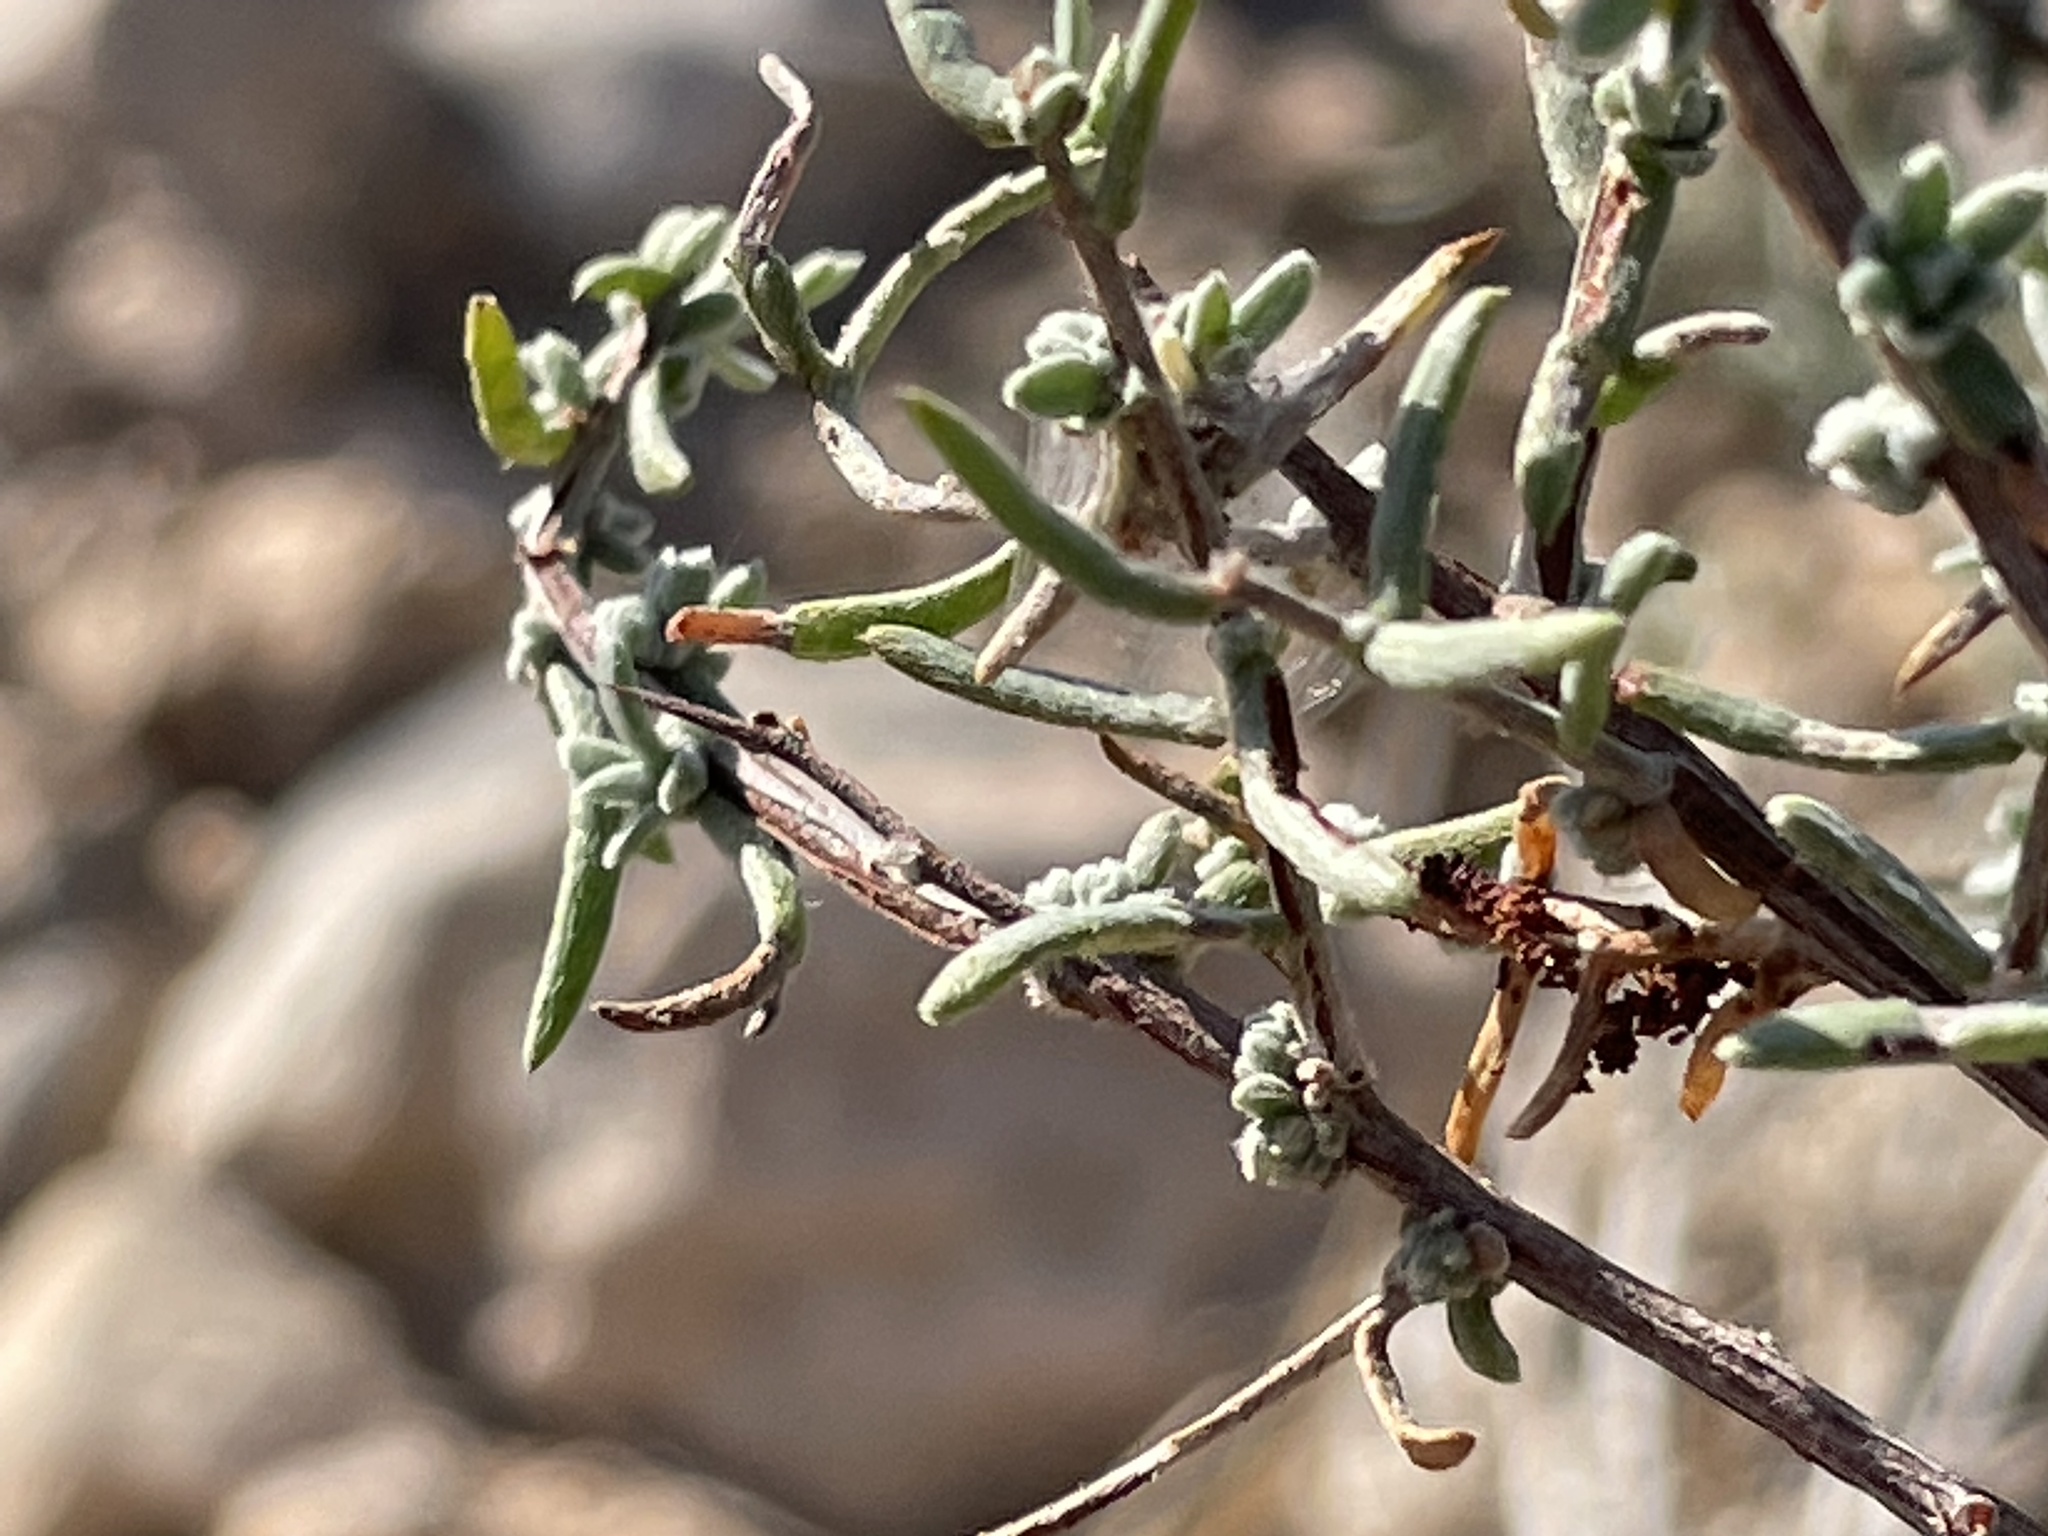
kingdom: Plantae
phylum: Tracheophyta
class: Magnoliopsida
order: Zygophyllales
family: Krameriaceae
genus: Krameria
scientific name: Krameria erecta
